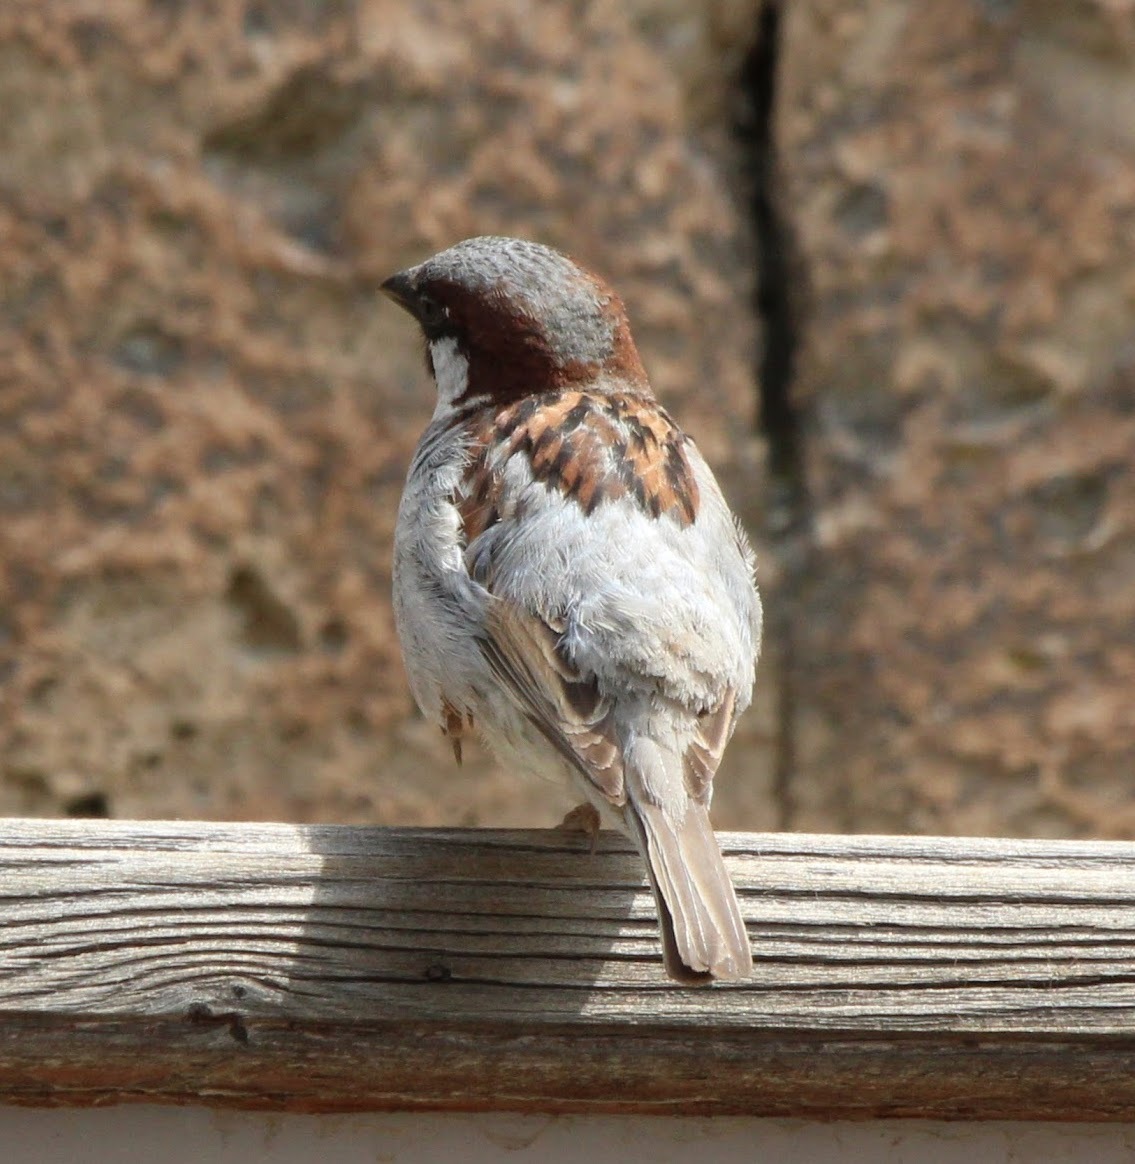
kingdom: Animalia
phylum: Chordata
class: Aves
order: Passeriformes
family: Passeridae
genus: Passer
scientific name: Passer domesticus
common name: House sparrow
